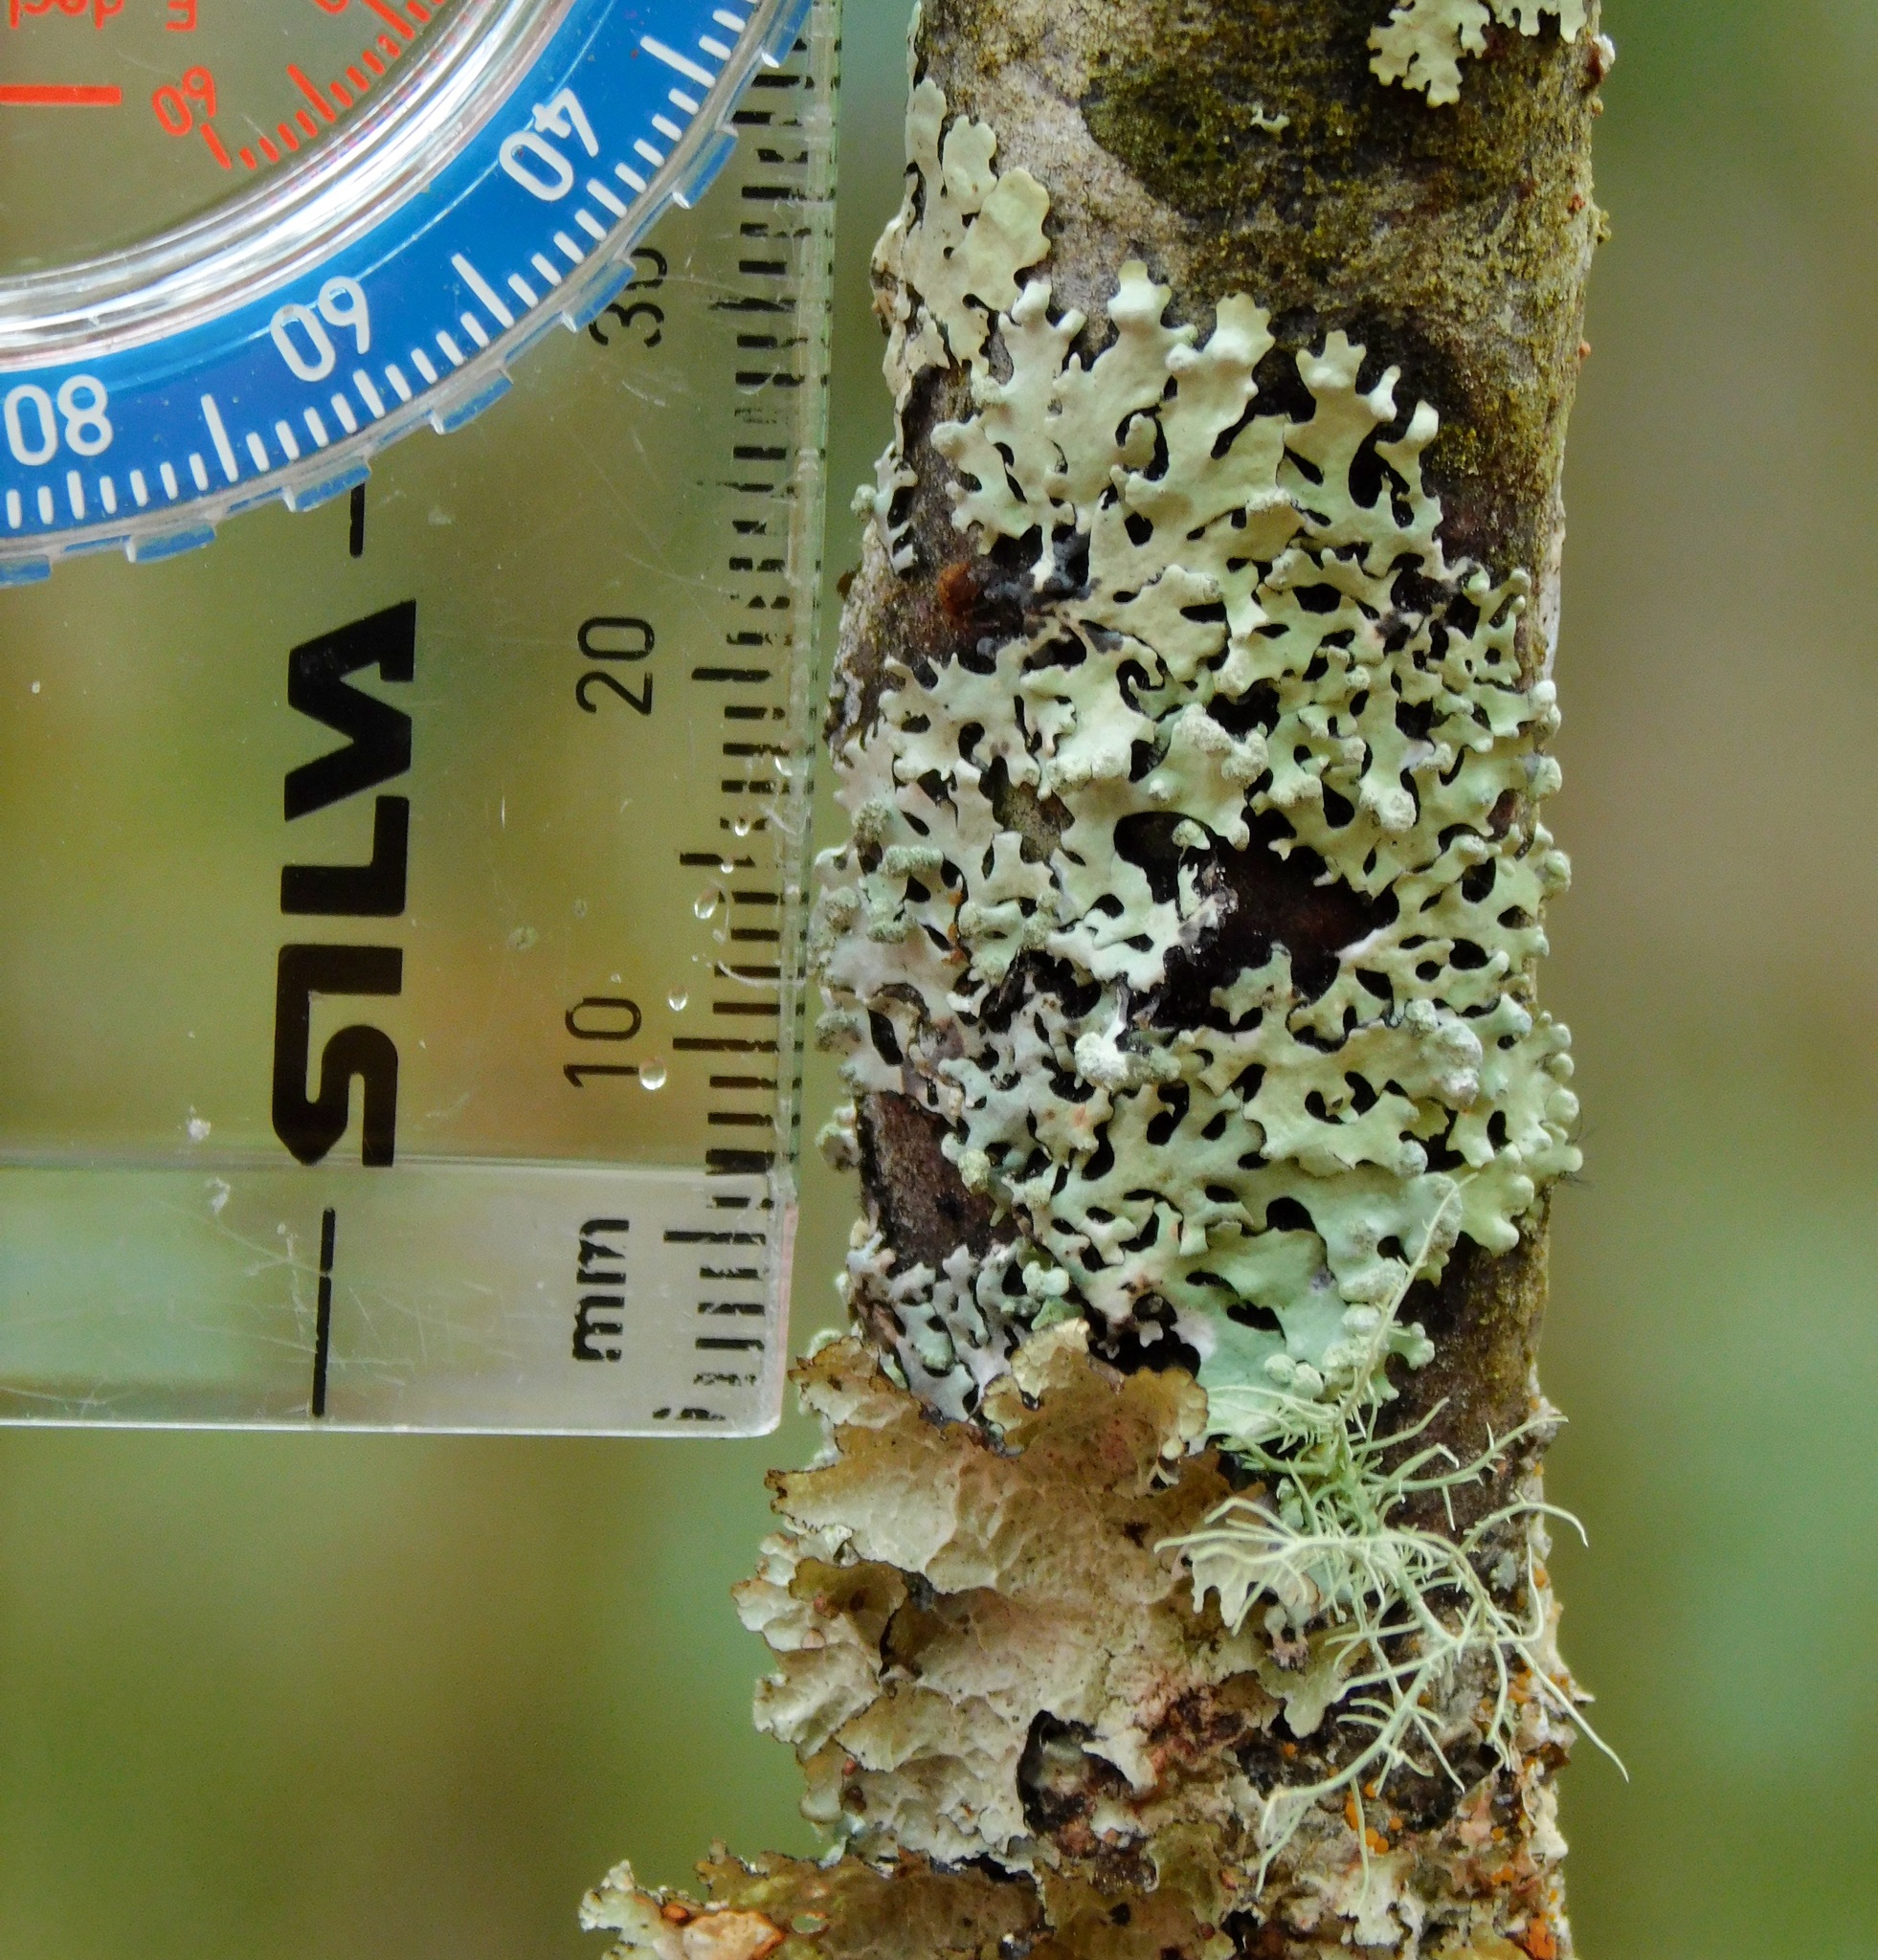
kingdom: Fungi
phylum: Ascomycota
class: Lecanoromycetes
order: Lecanorales
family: Parmeliaceae
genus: Myelochroa
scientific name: Myelochroa metarevoluta
